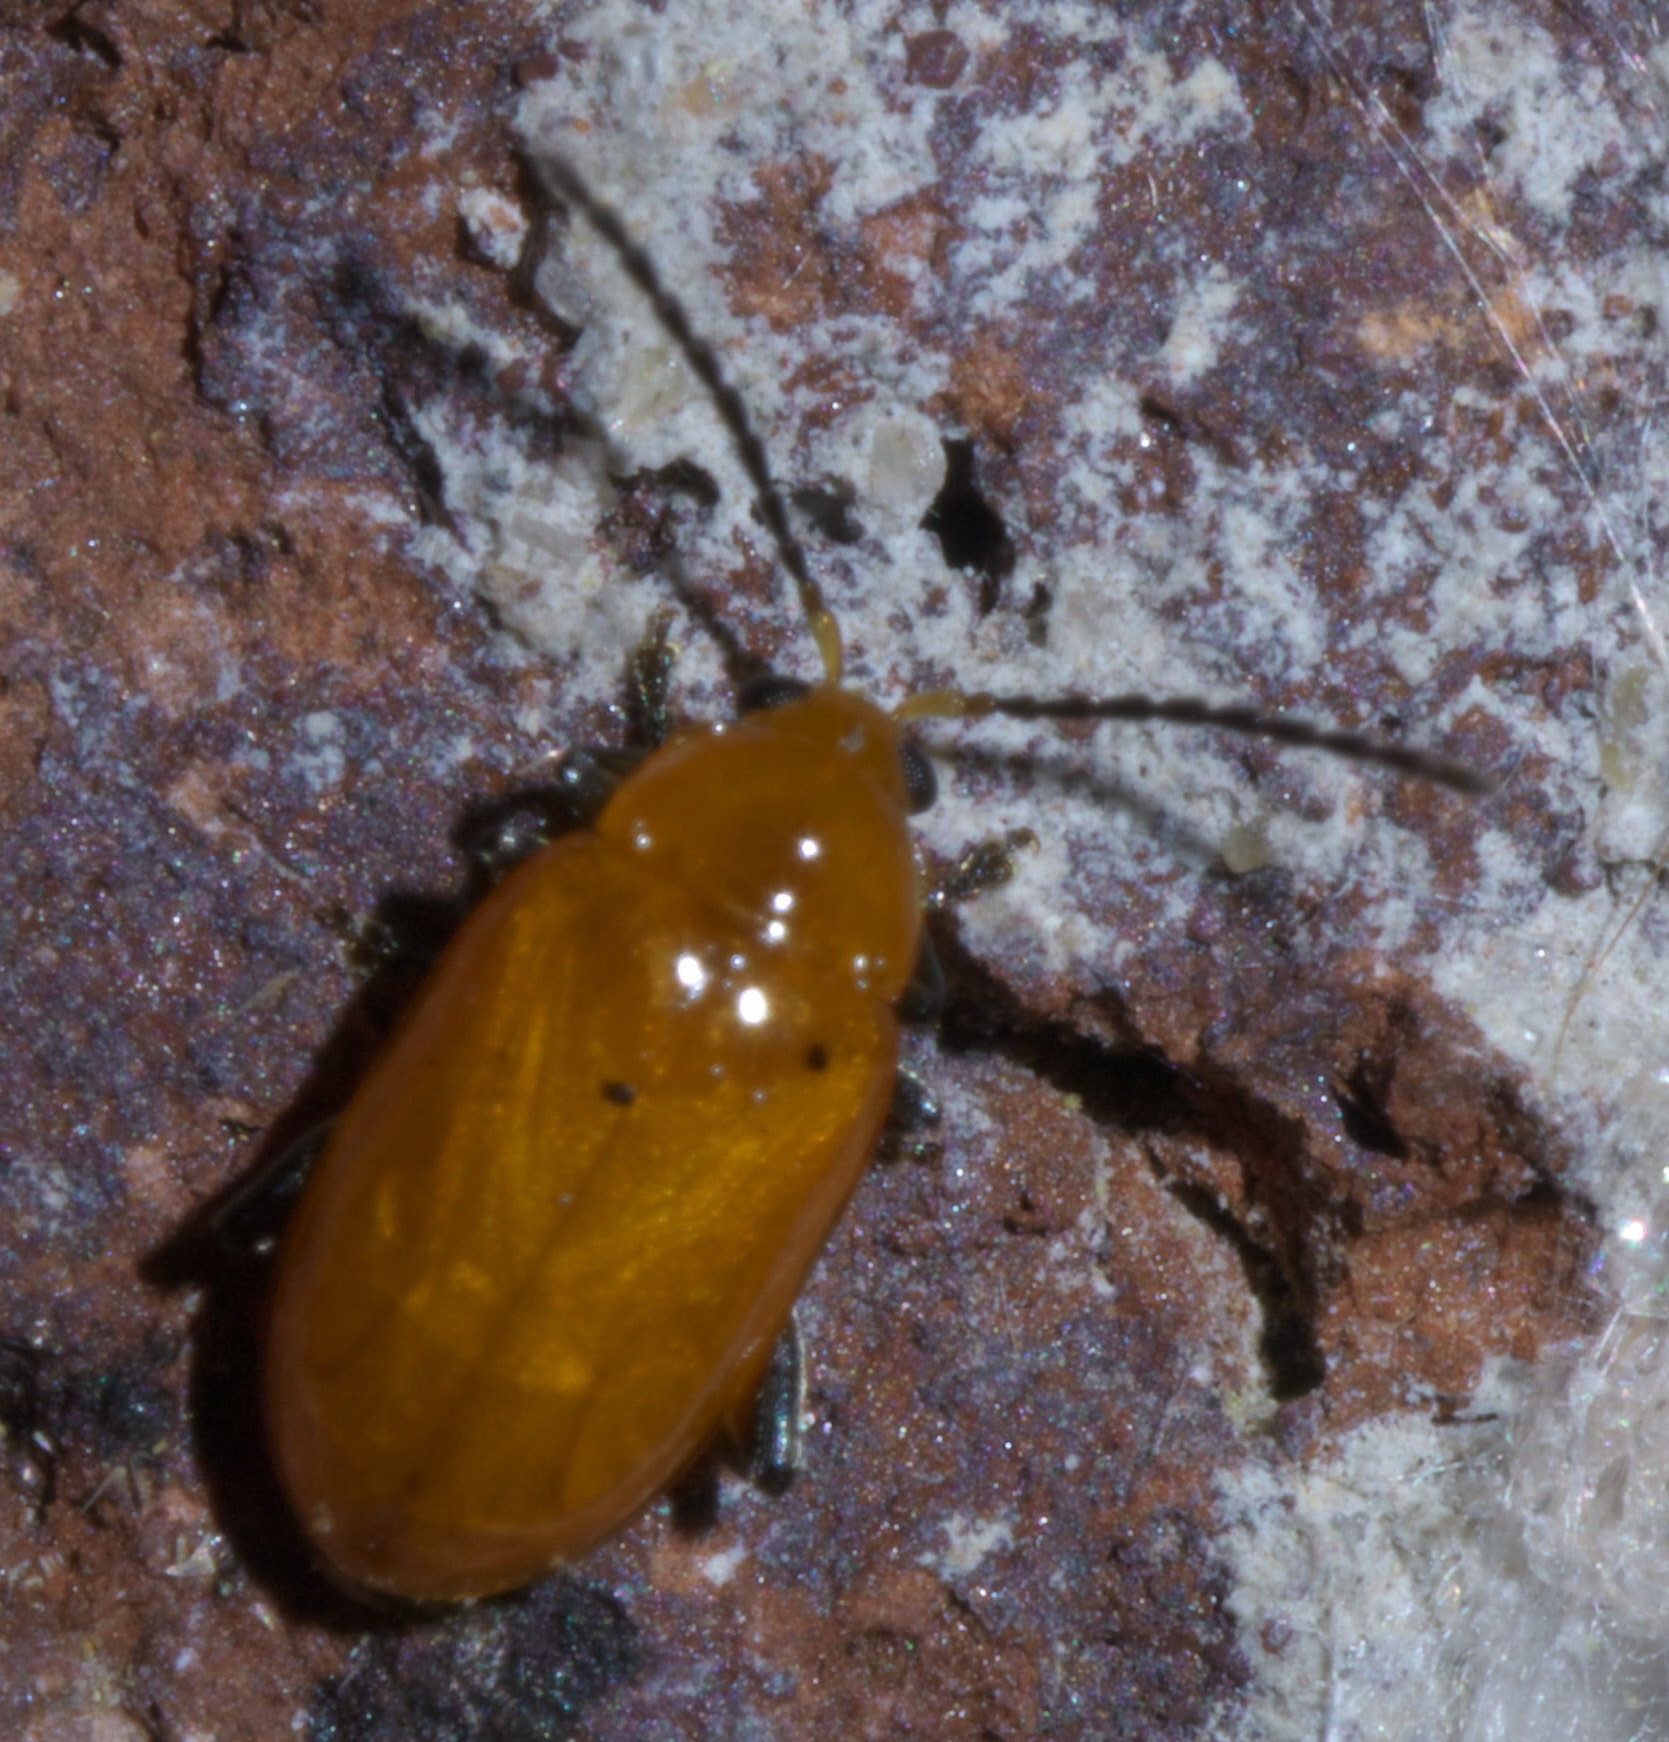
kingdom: Animalia
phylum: Arthropoda
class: Insecta
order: Coleoptera
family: Chrysomelidae
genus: Parchicola
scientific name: Parchicola tibialis
